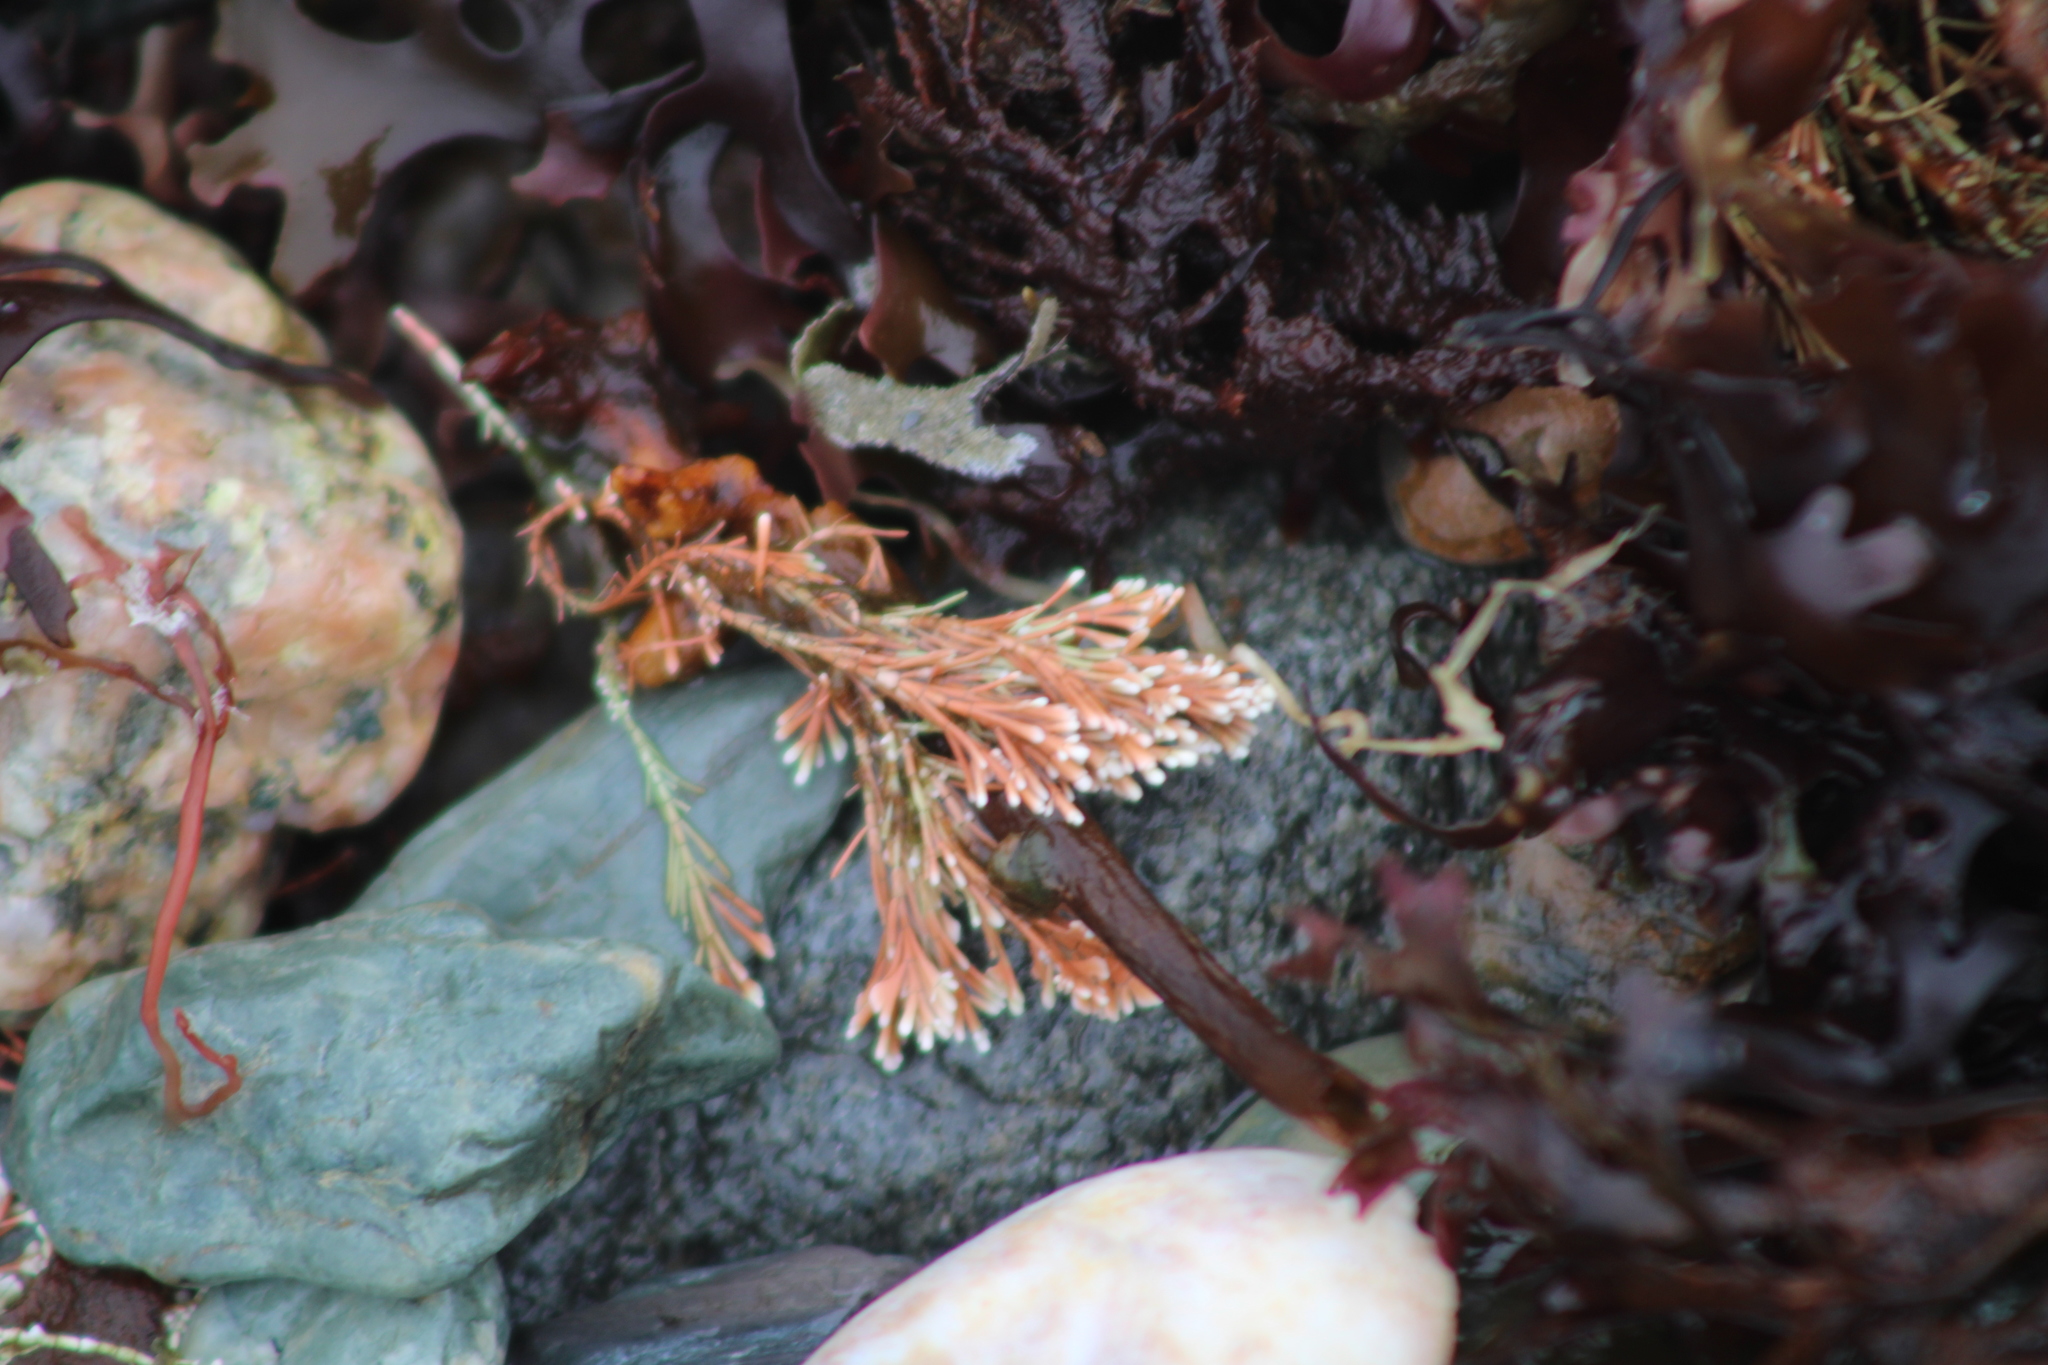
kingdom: Plantae
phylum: Rhodophyta
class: Florideophyceae
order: Corallinales
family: Corallinaceae
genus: Corallina
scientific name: Corallina officinalis
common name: Coral weed
